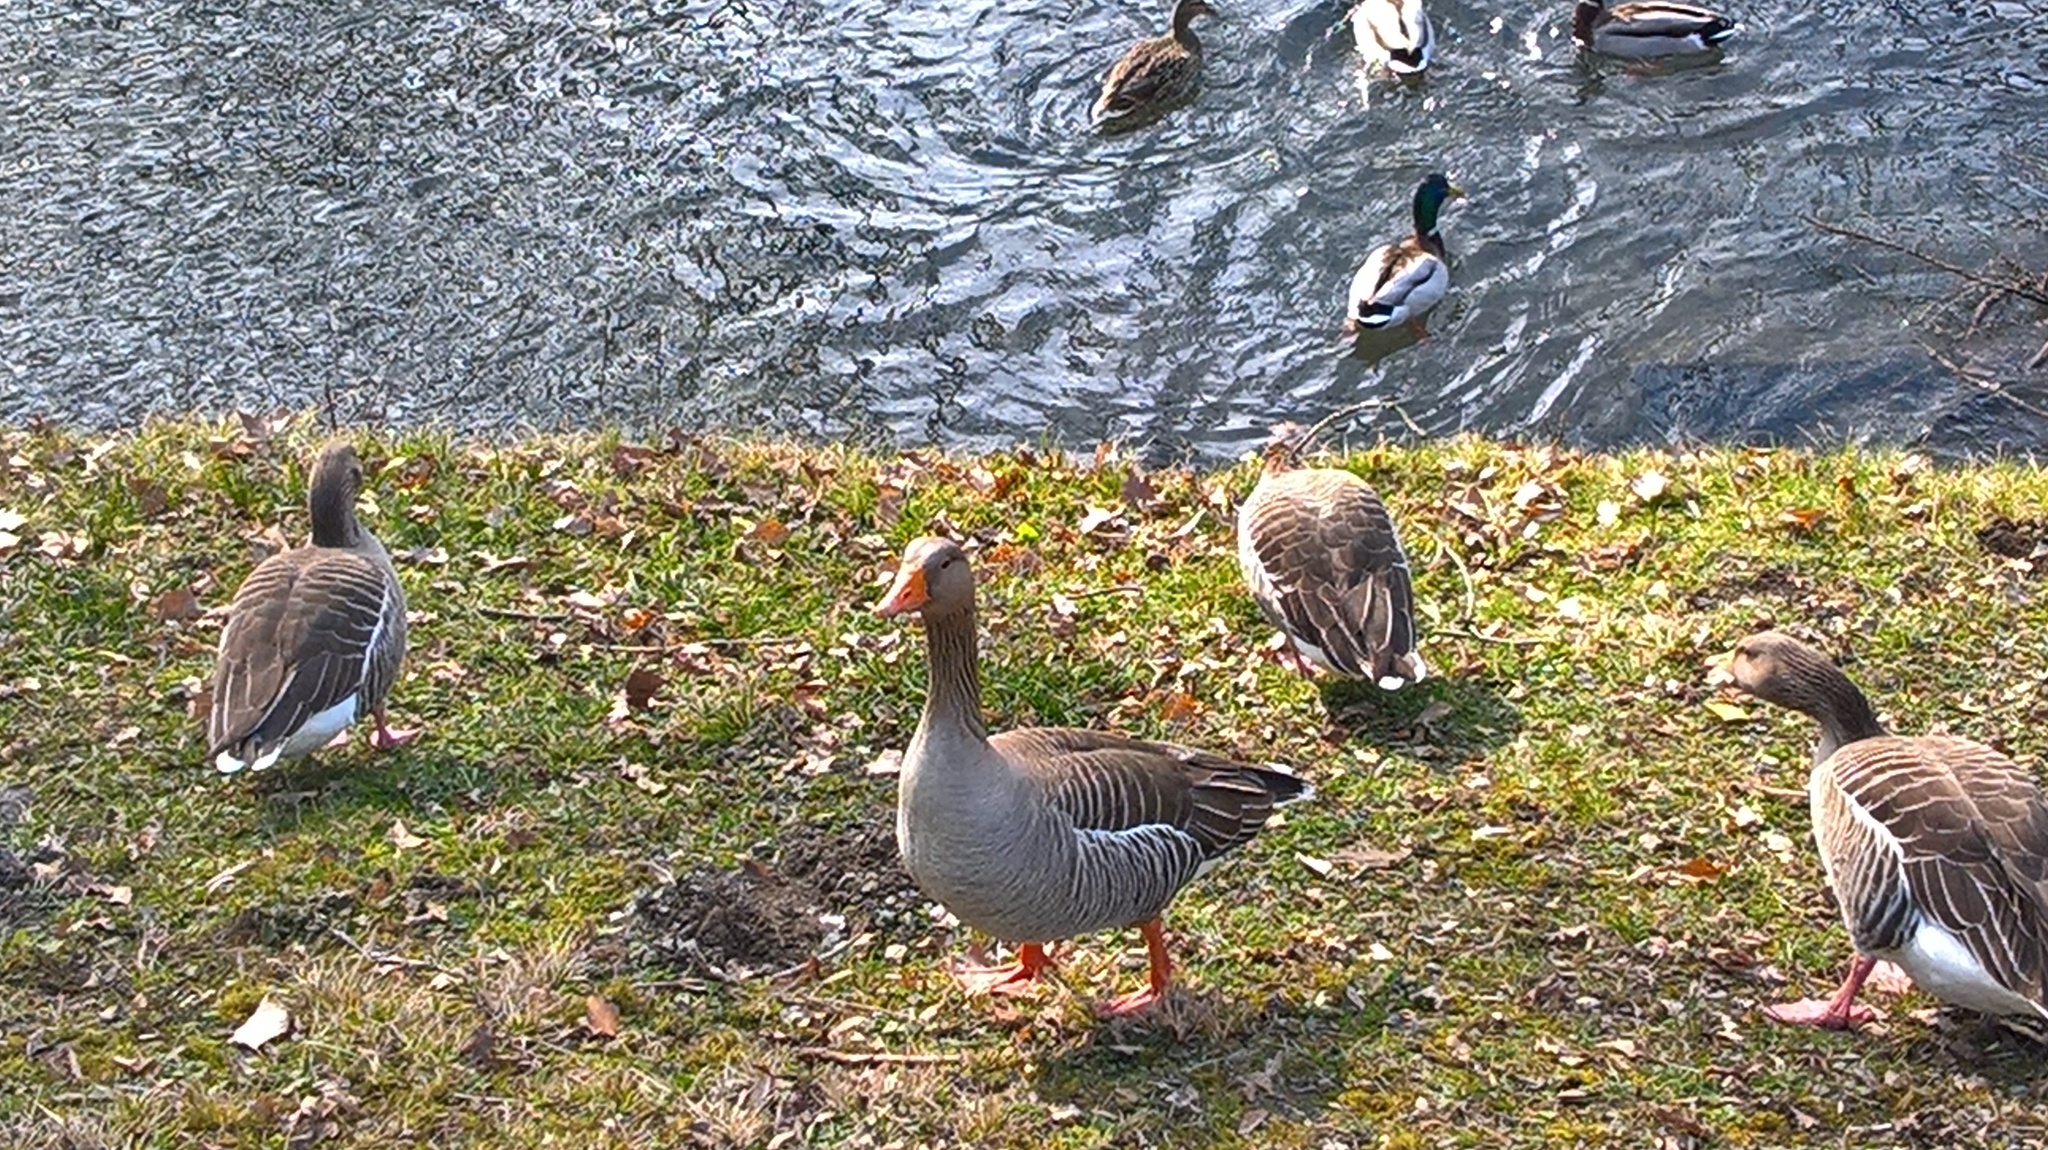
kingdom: Animalia
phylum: Chordata
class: Aves
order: Anseriformes
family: Anatidae
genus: Anser
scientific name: Anser anser
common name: Greylag goose
